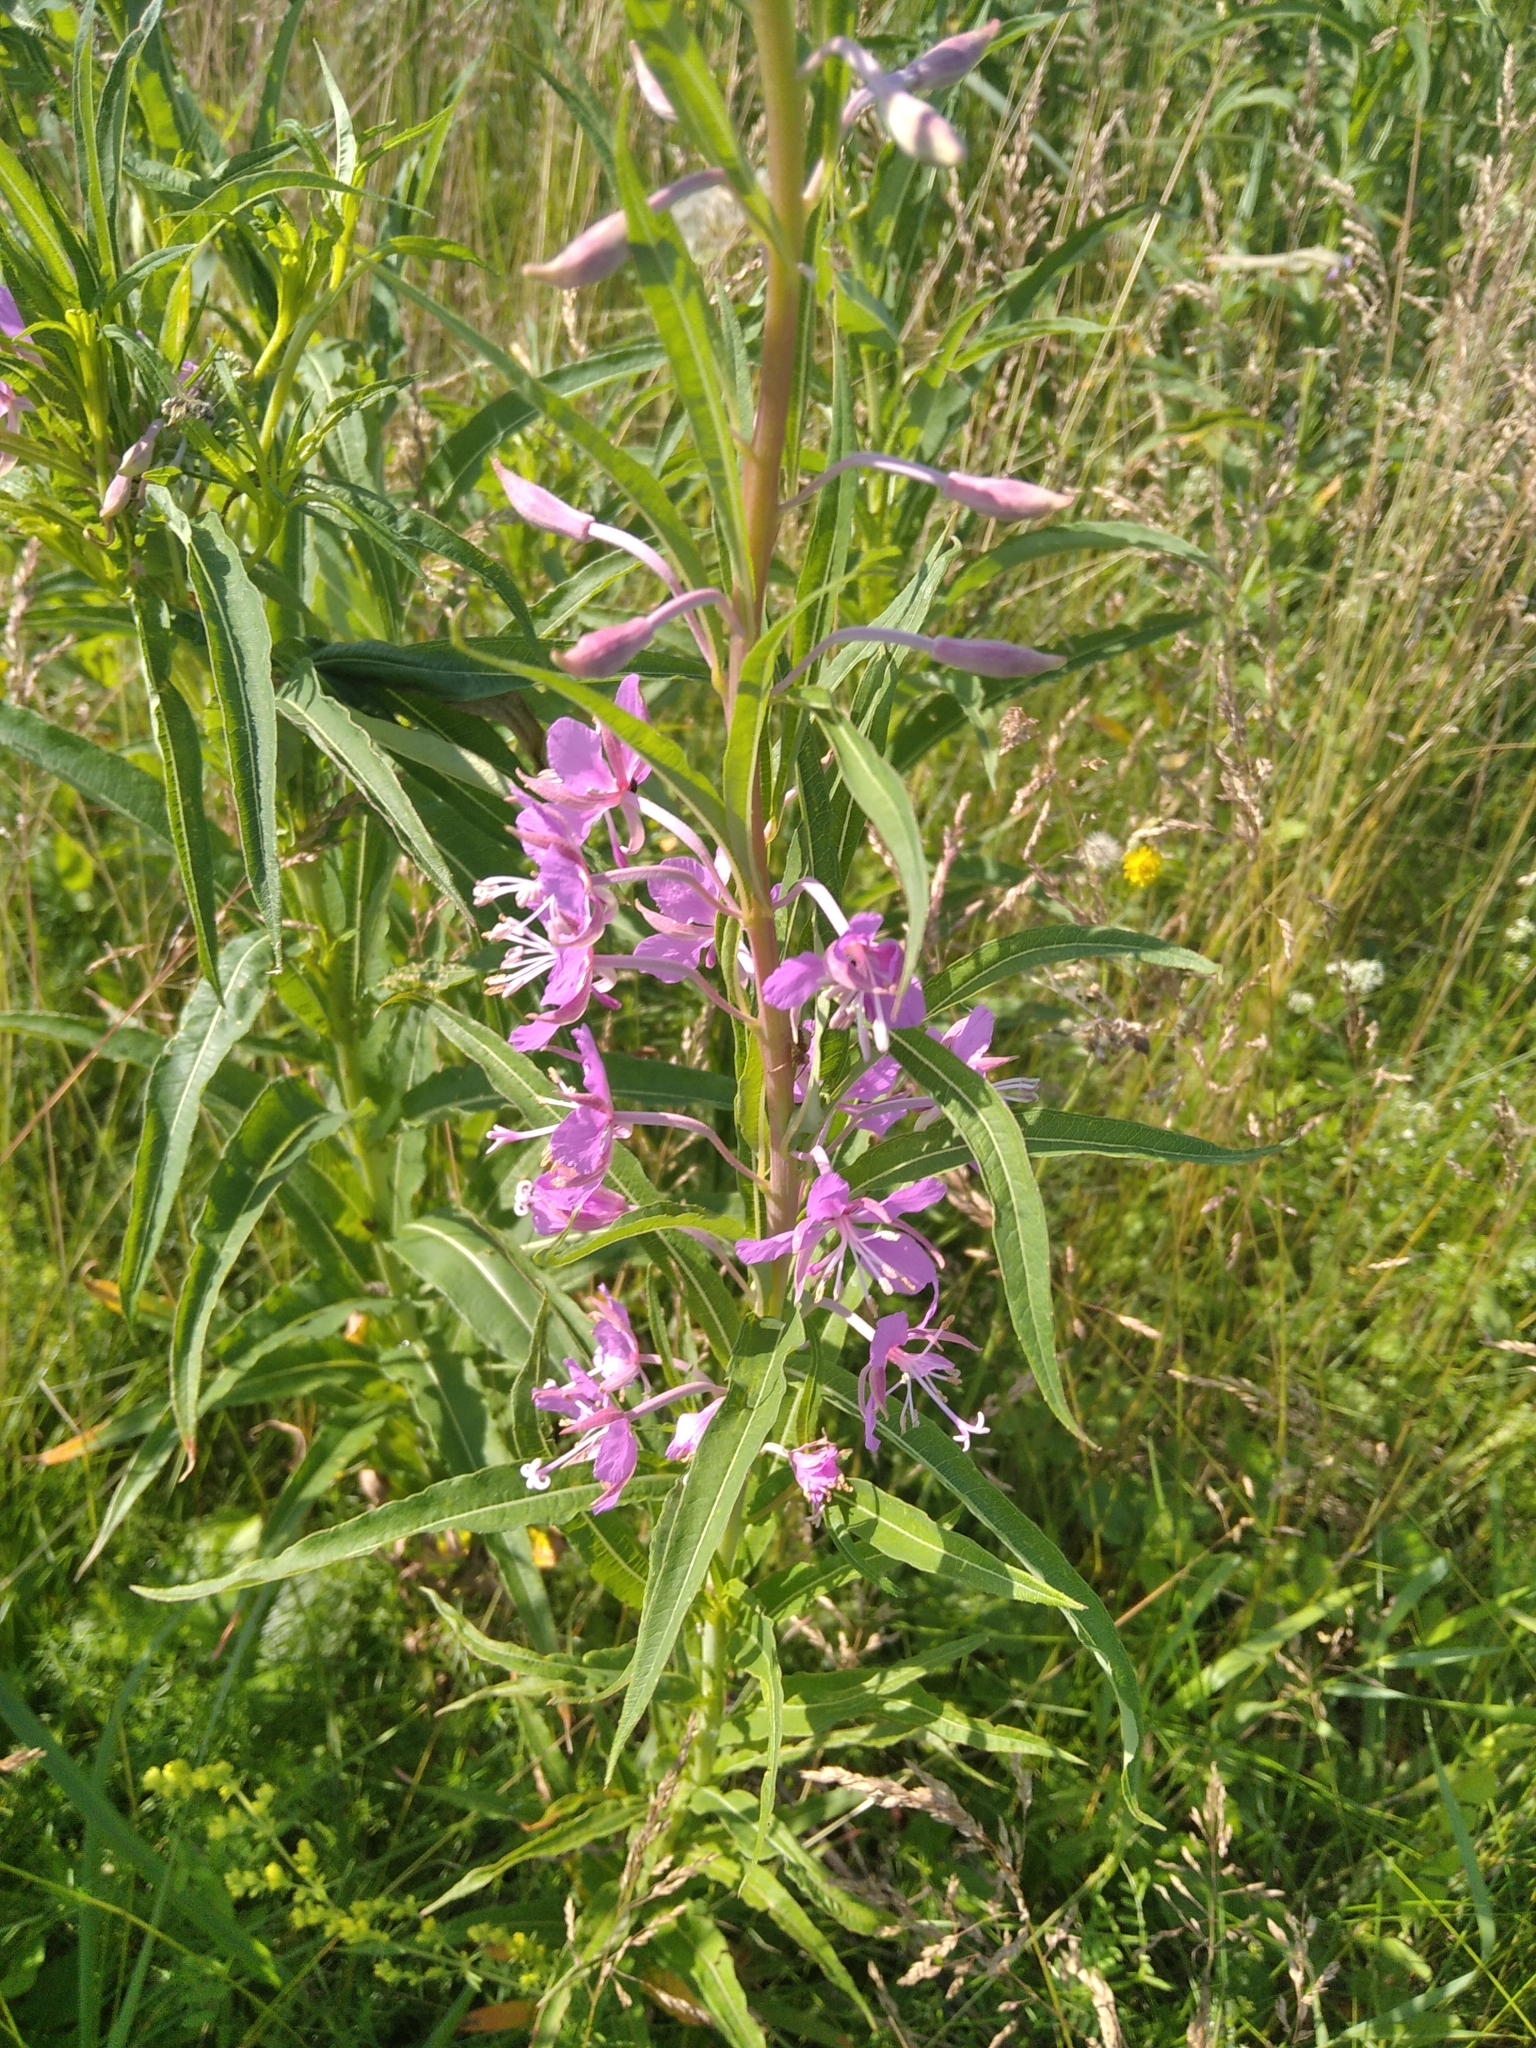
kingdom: Plantae
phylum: Tracheophyta
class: Magnoliopsida
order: Myrtales
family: Onagraceae
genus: Chamaenerion
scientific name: Chamaenerion angustifolium
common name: Fireweed
